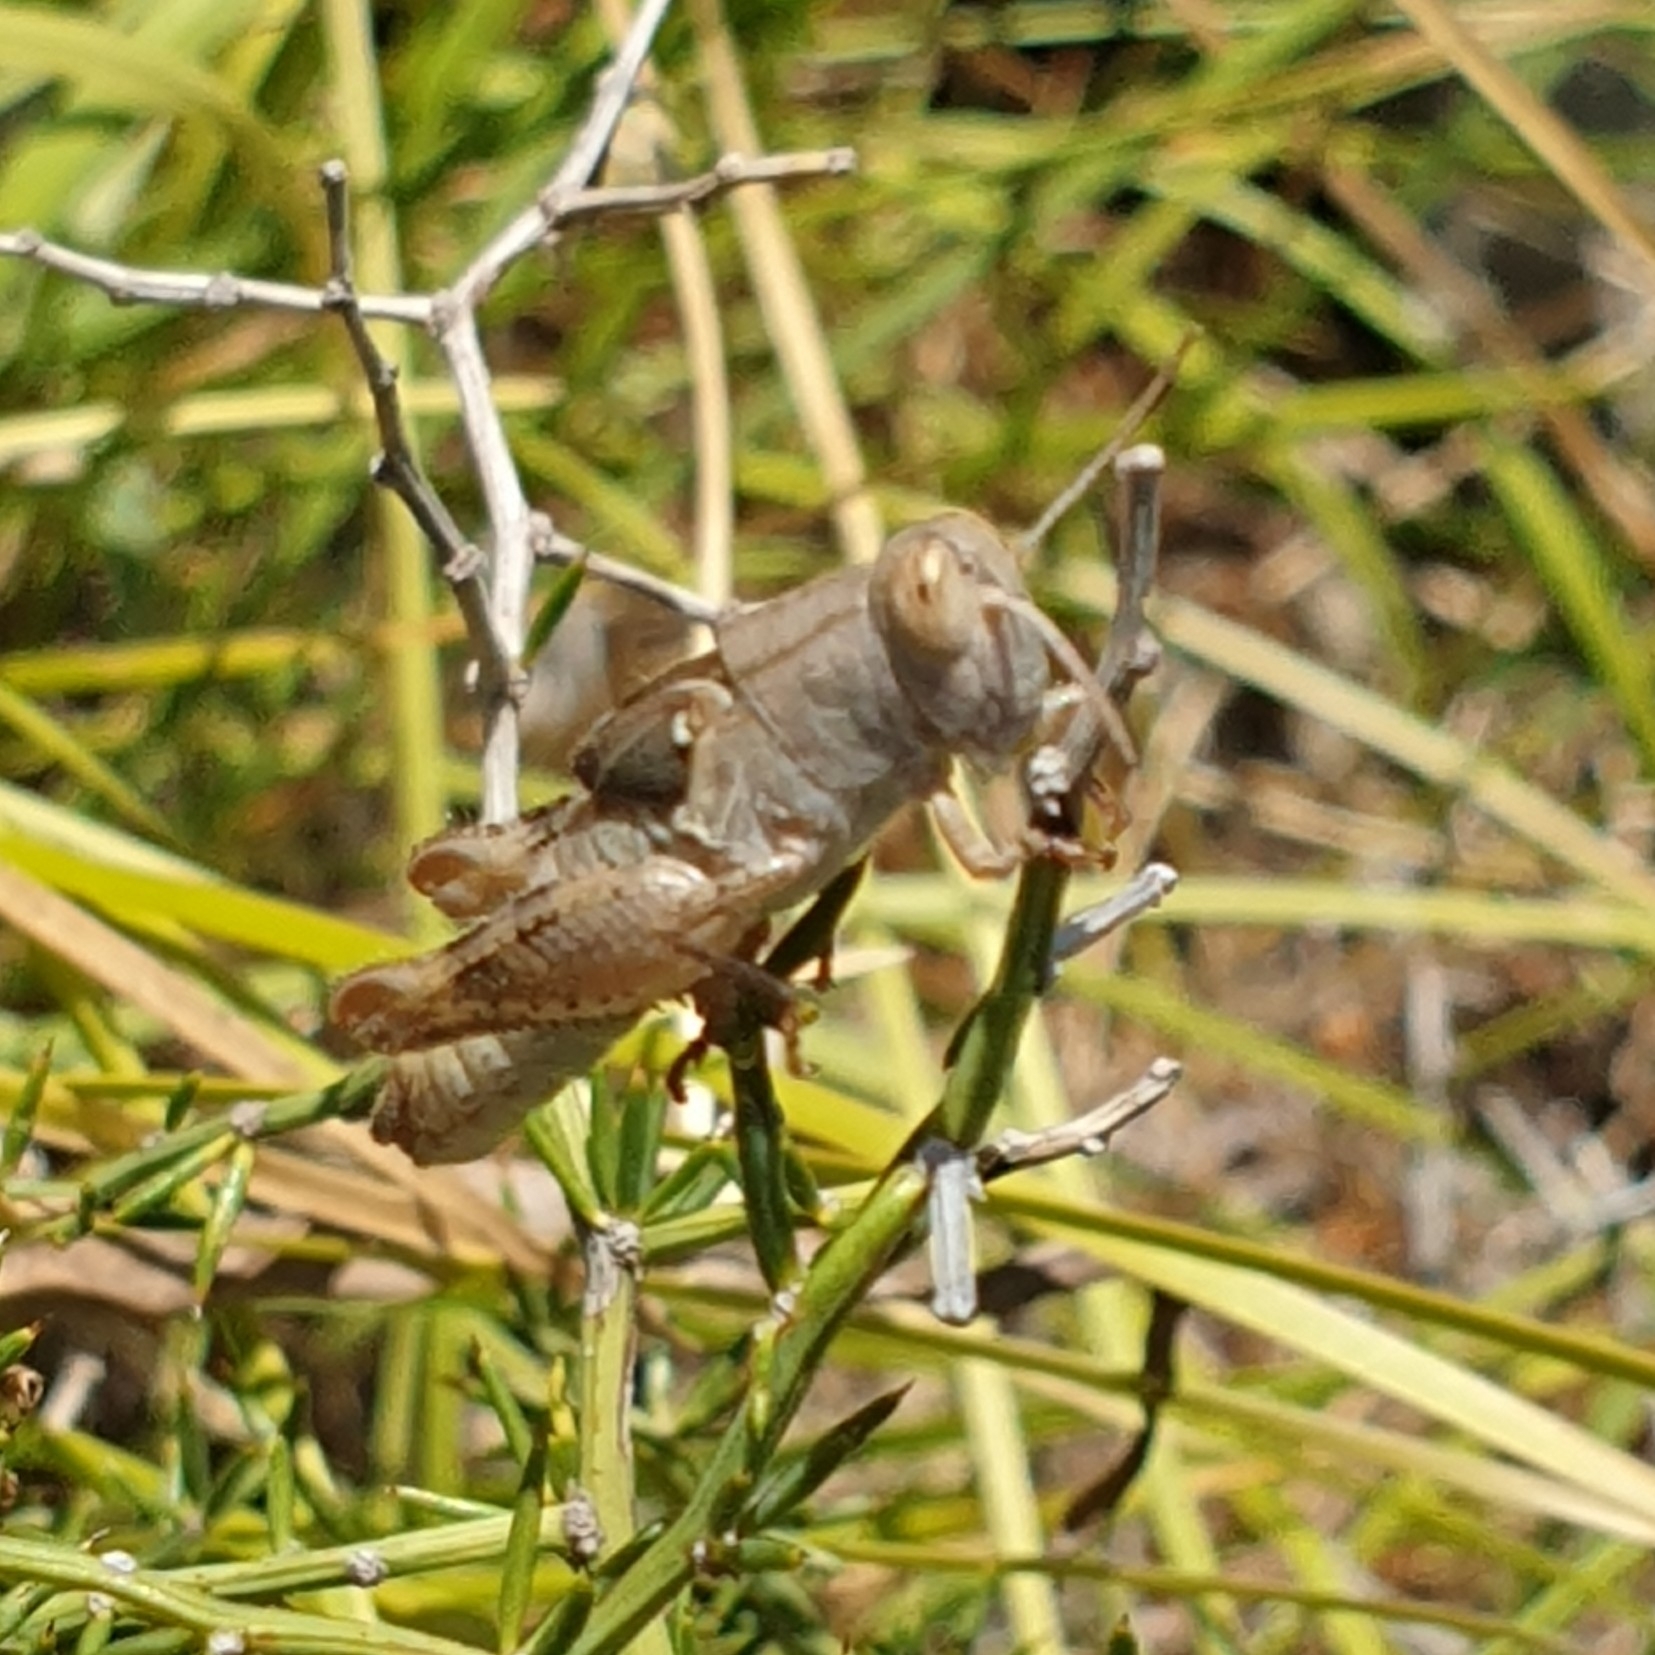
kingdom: Animalia
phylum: Arthropoda
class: Insecta
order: Orthoptera
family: Acrididae
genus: Calliptamus
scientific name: Calliptamus italicus
